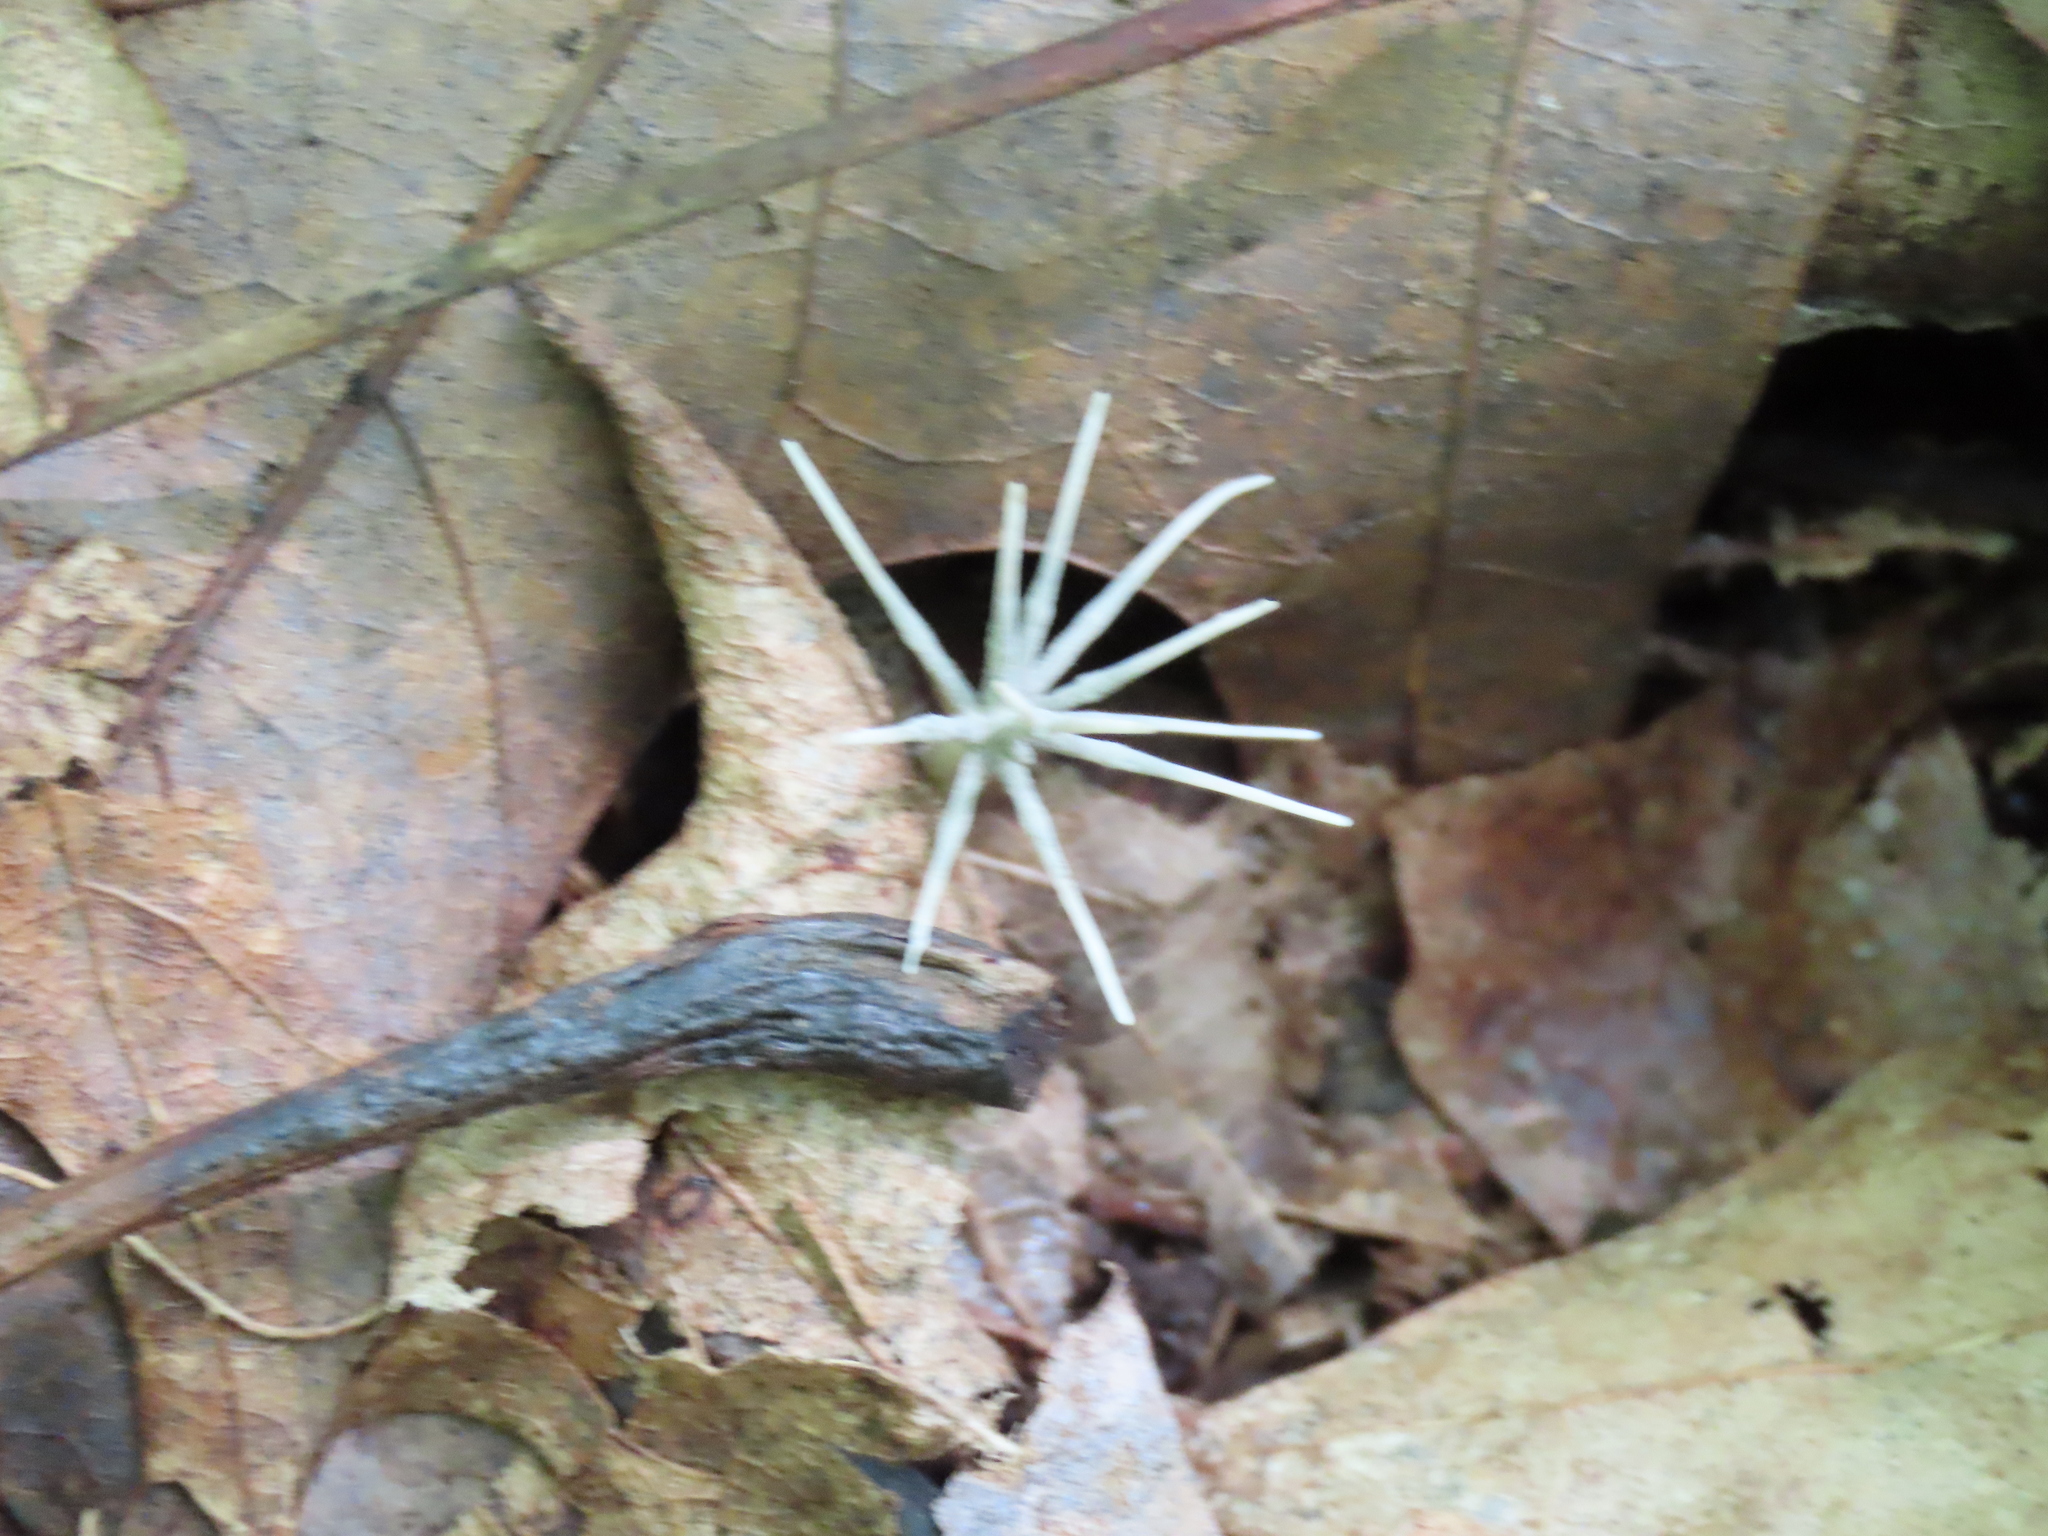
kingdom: Fungi
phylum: Ascomycota
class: Sordariomycetes
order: Xylariales
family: Xylariaceae
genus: Xylaria
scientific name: Xylaria tentaculata
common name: Fairy sparklers
